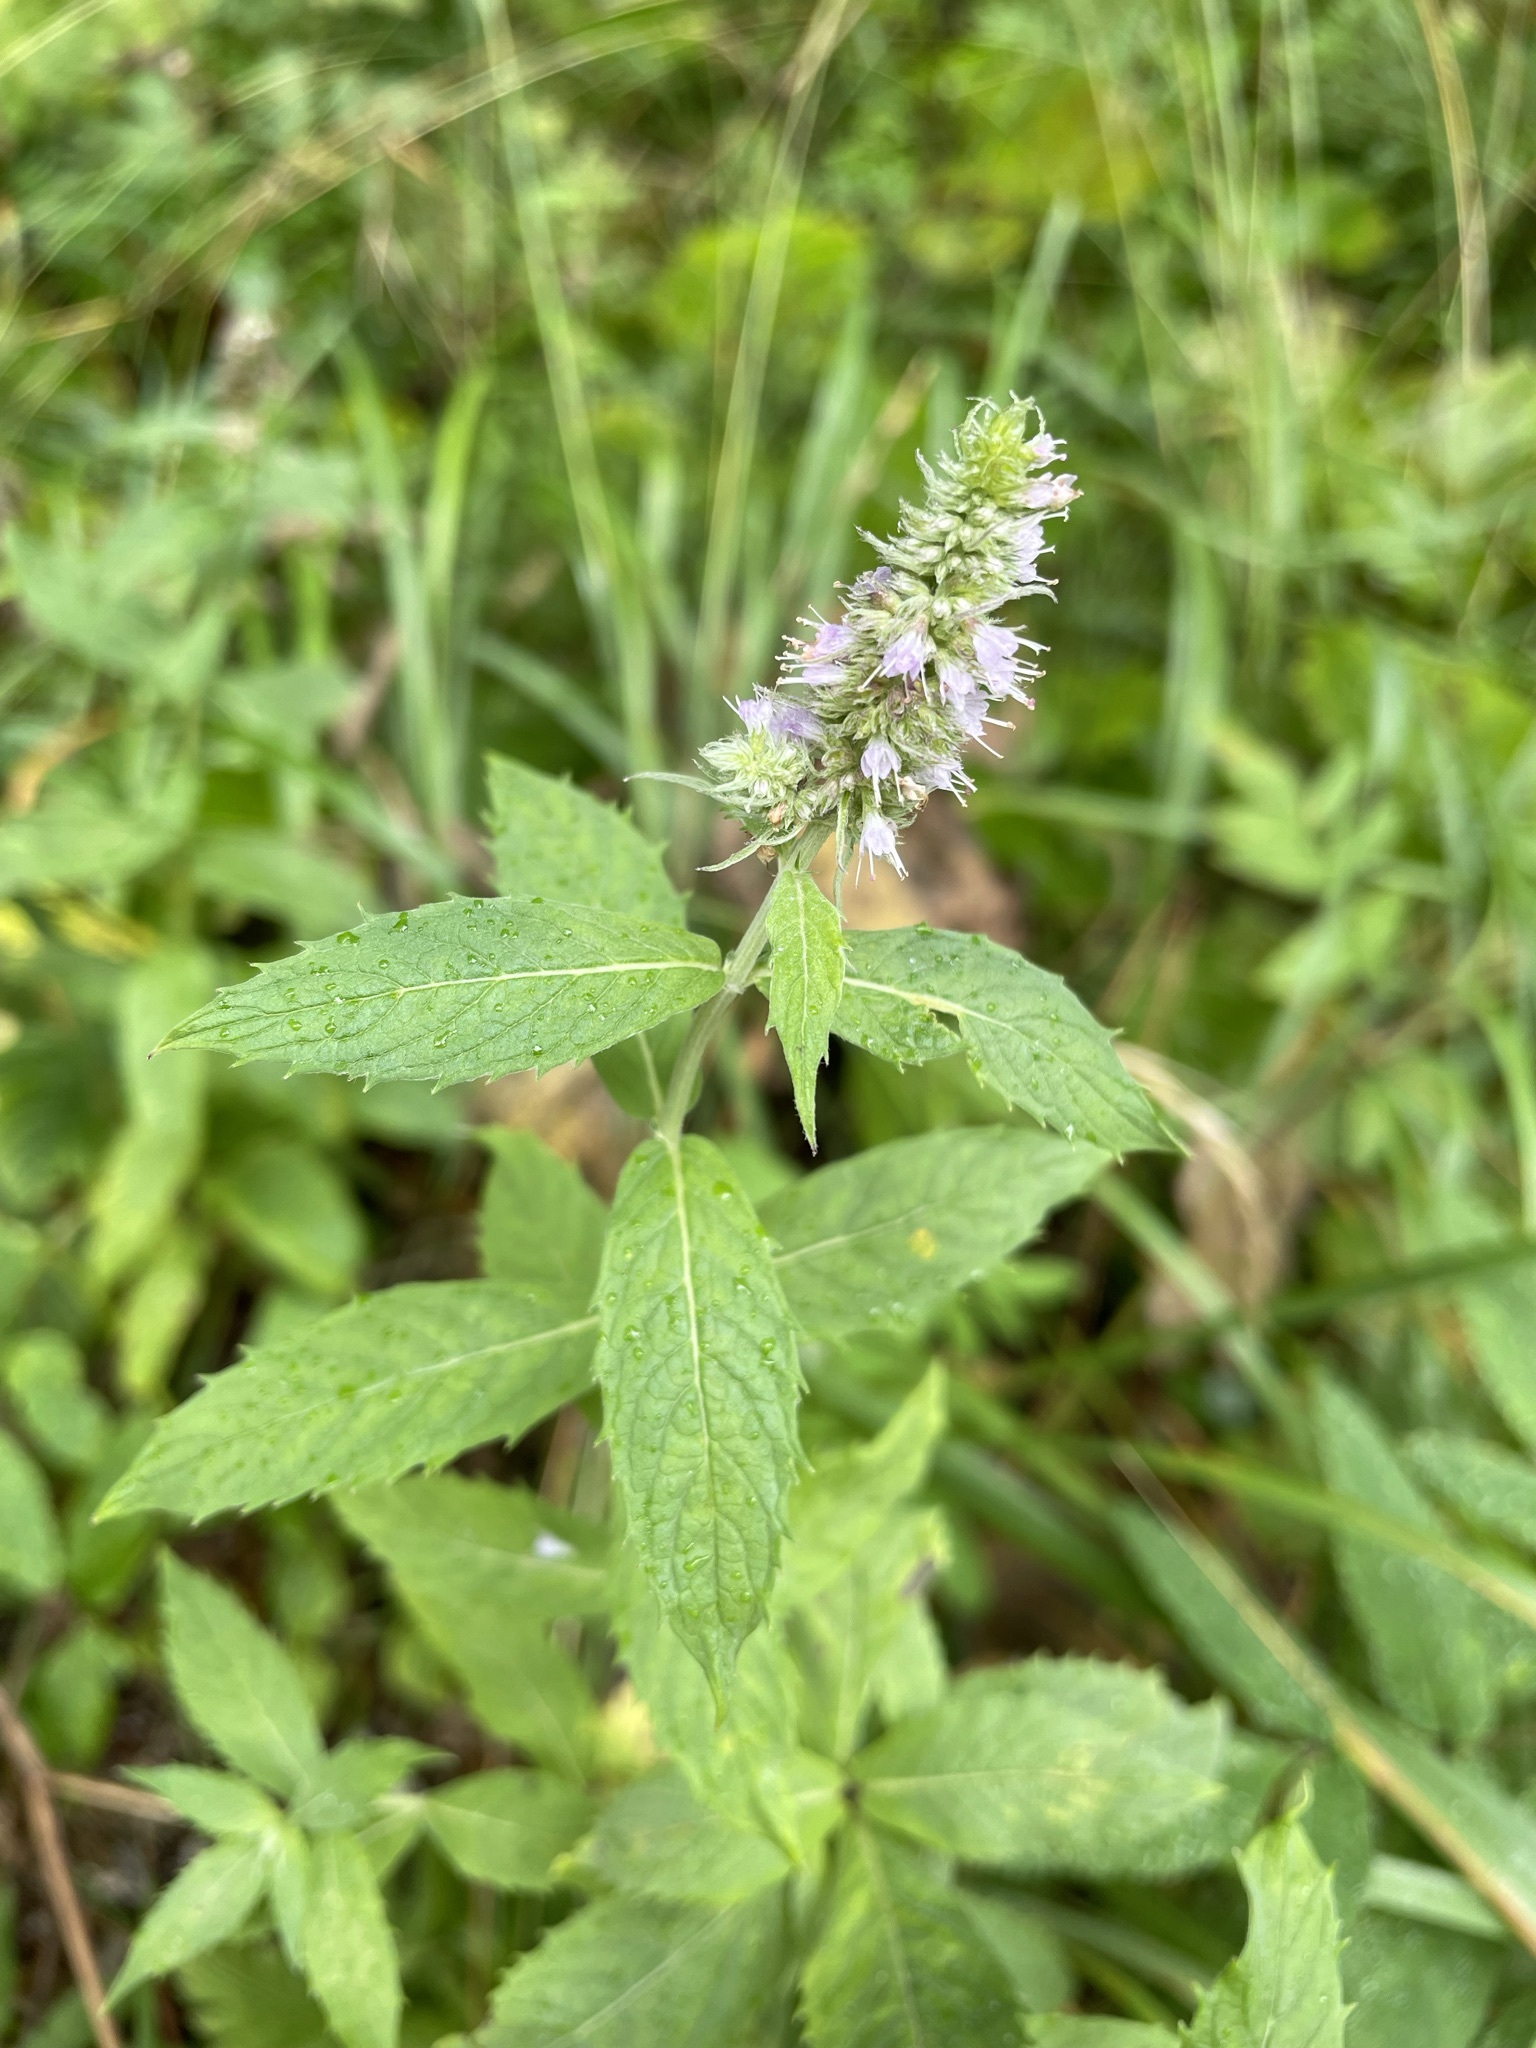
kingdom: Plantae
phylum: Tracheophyta
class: Magnoliopsida
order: Lamiales
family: Lamiaceae
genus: Mentha
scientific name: Mentha longifolia
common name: Horse mint
